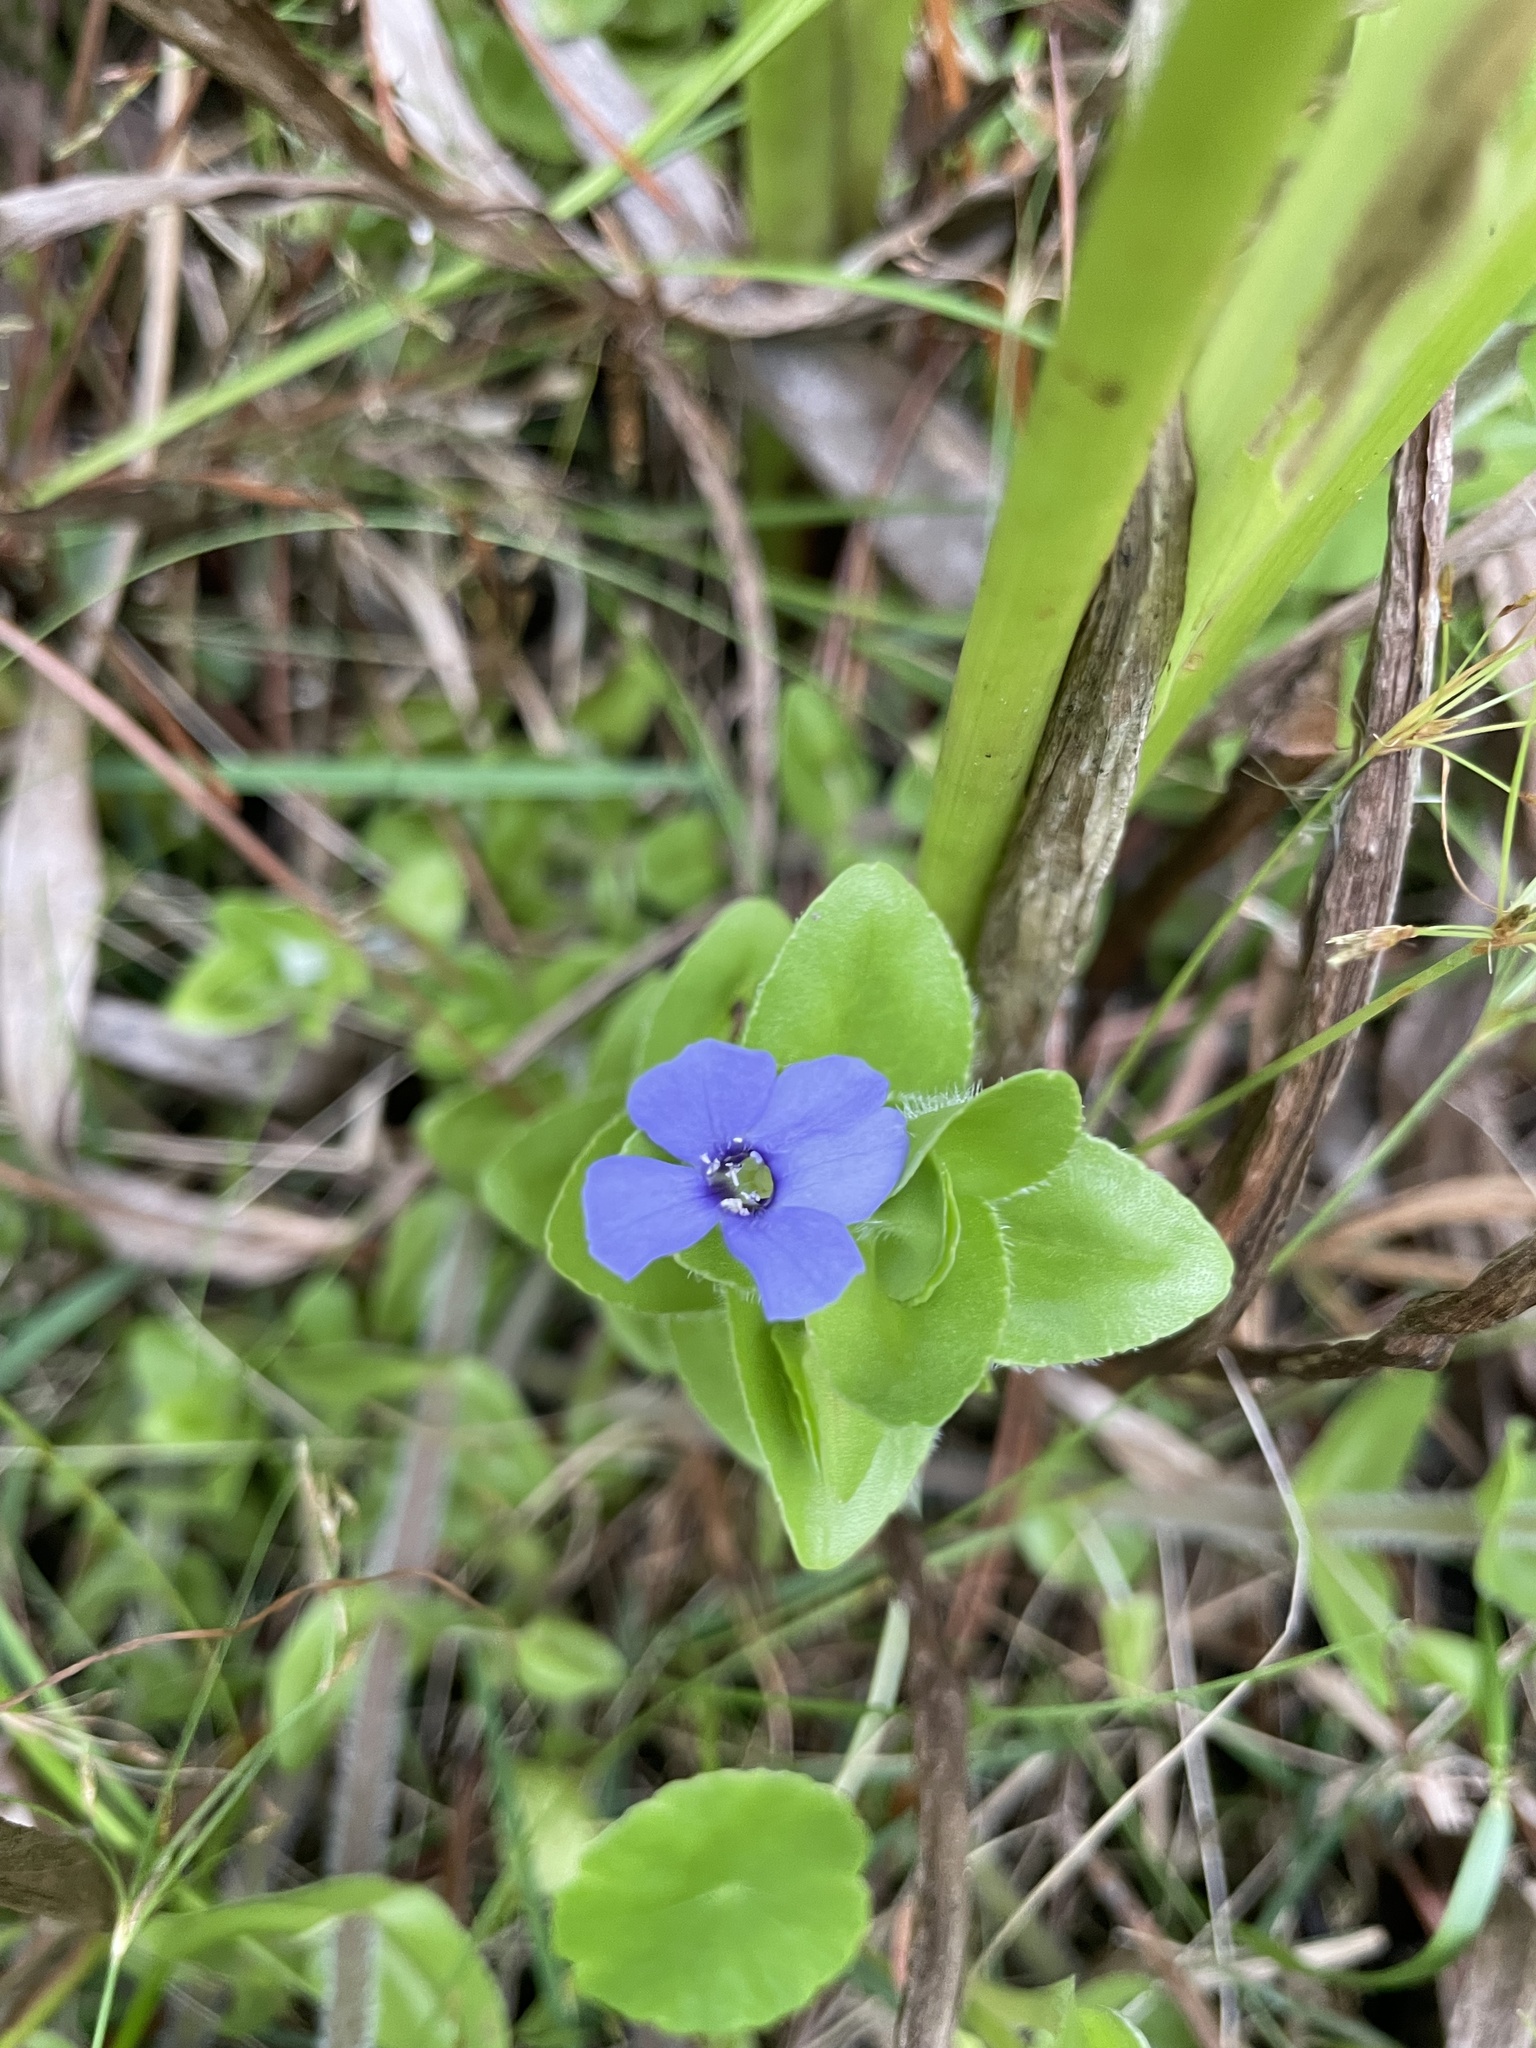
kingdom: Plantae
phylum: Tracheophyta
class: Magnoliopsida
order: Lamiales
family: Plantaginaceae
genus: Bacopa
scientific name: Bacopa caroliniana
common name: Lemon bacopa
